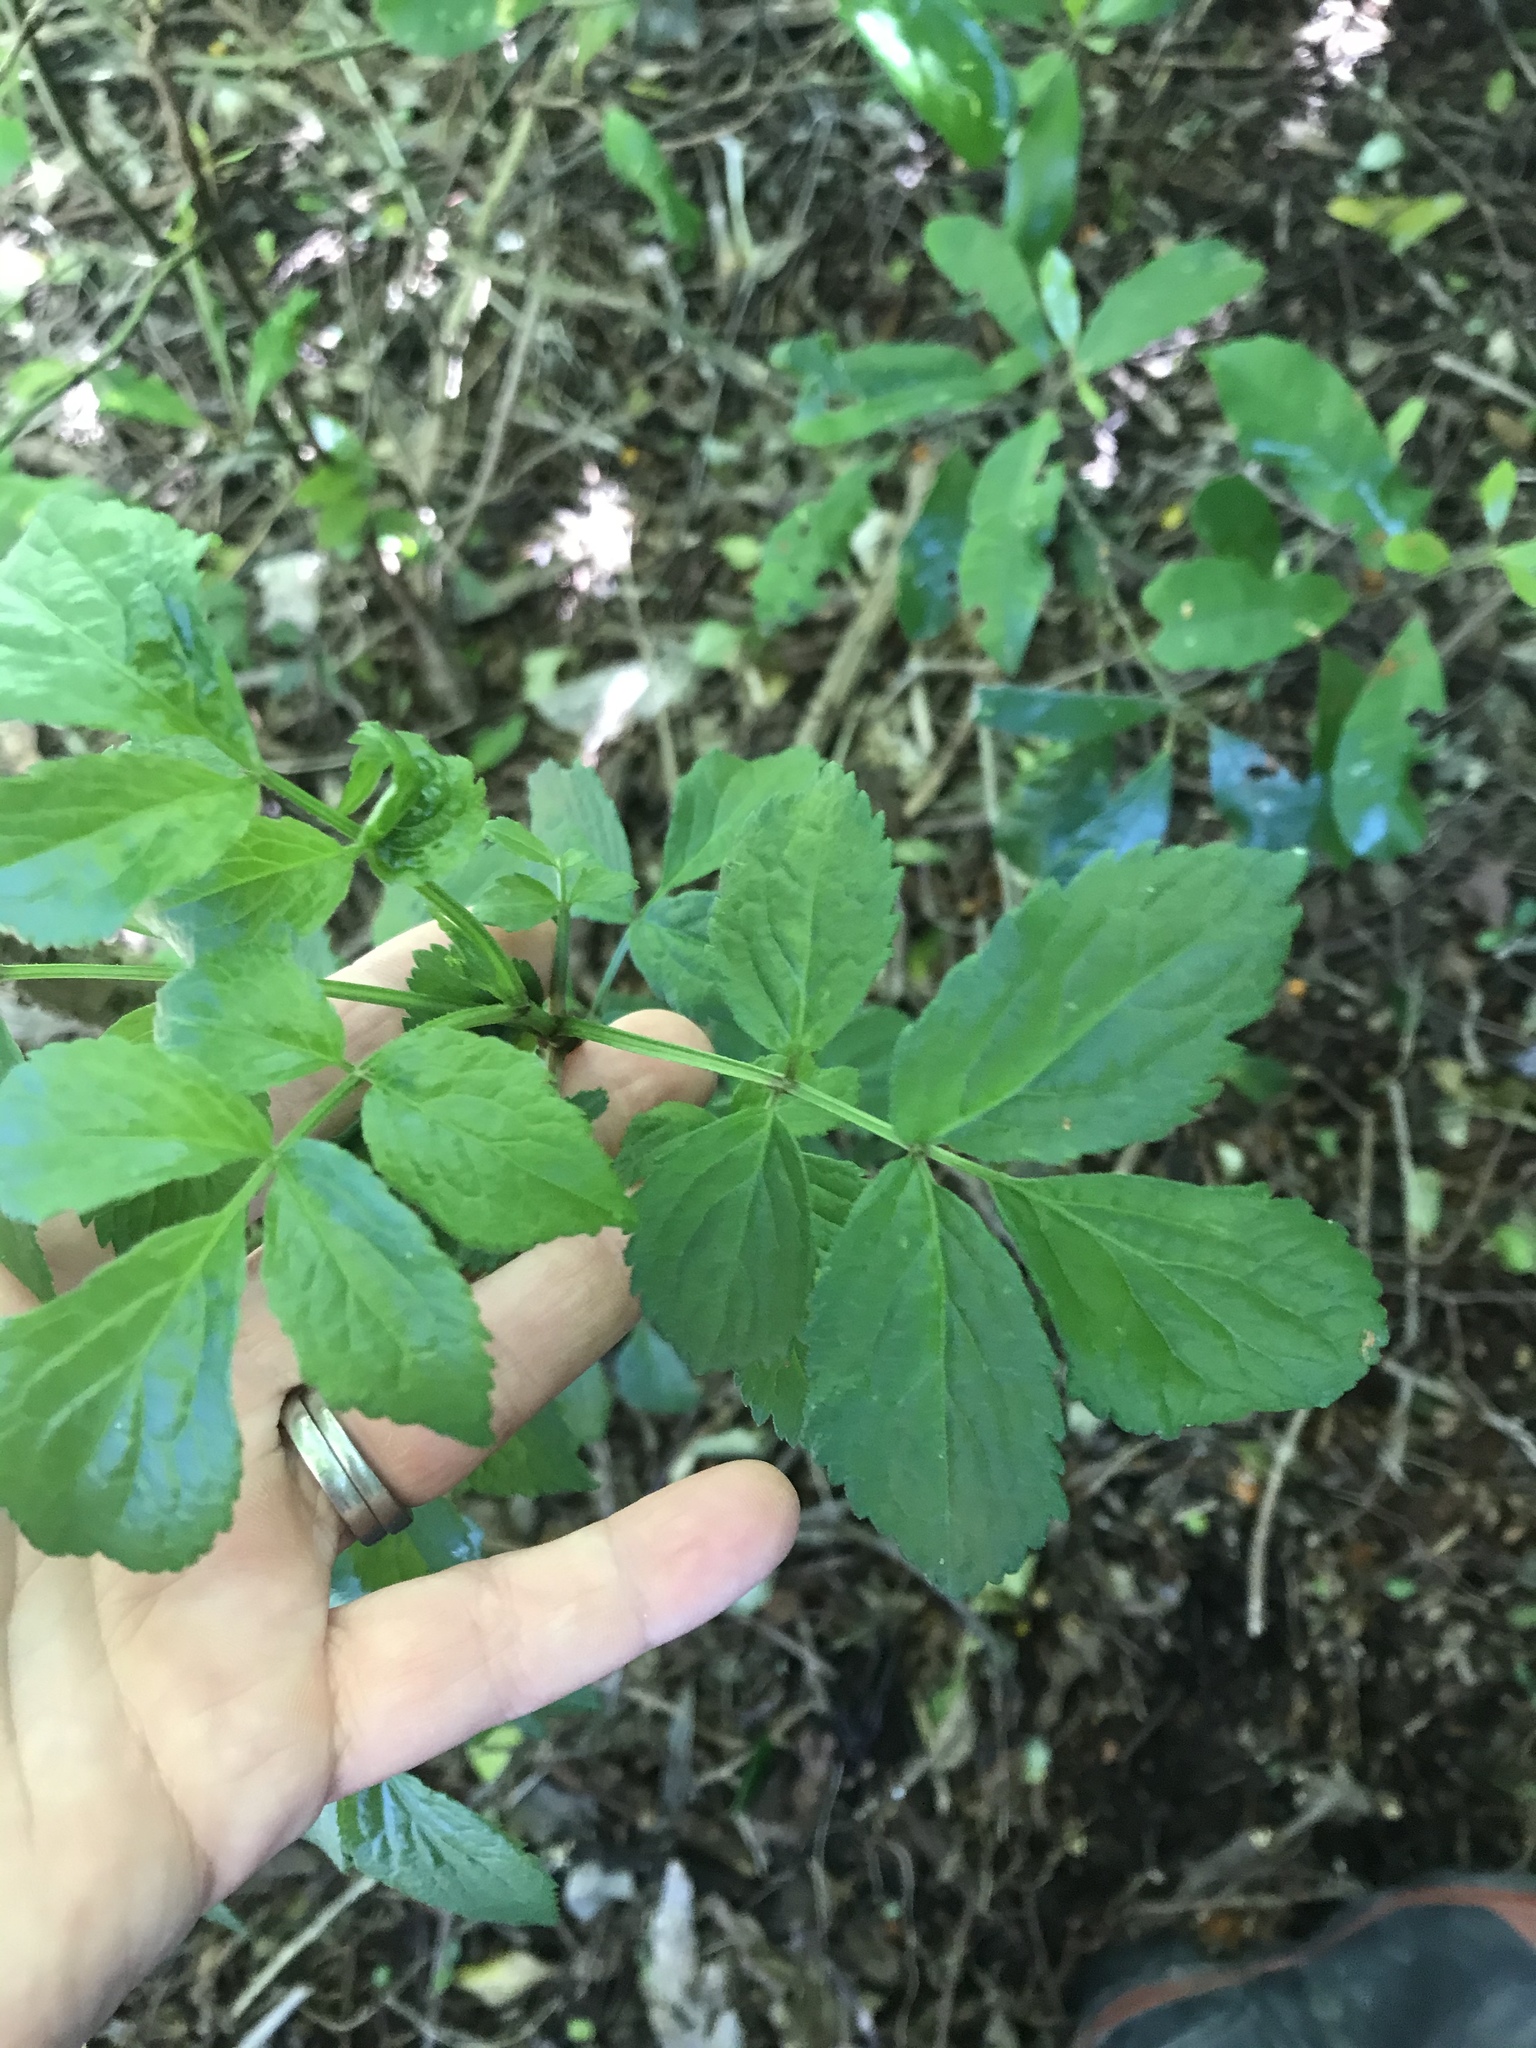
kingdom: Plantae
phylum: Tracheophyta
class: Magnoliopsida
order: Dipsacales
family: Viburnaceae
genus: Sambucus
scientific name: Sambucus nigra
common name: Elder
